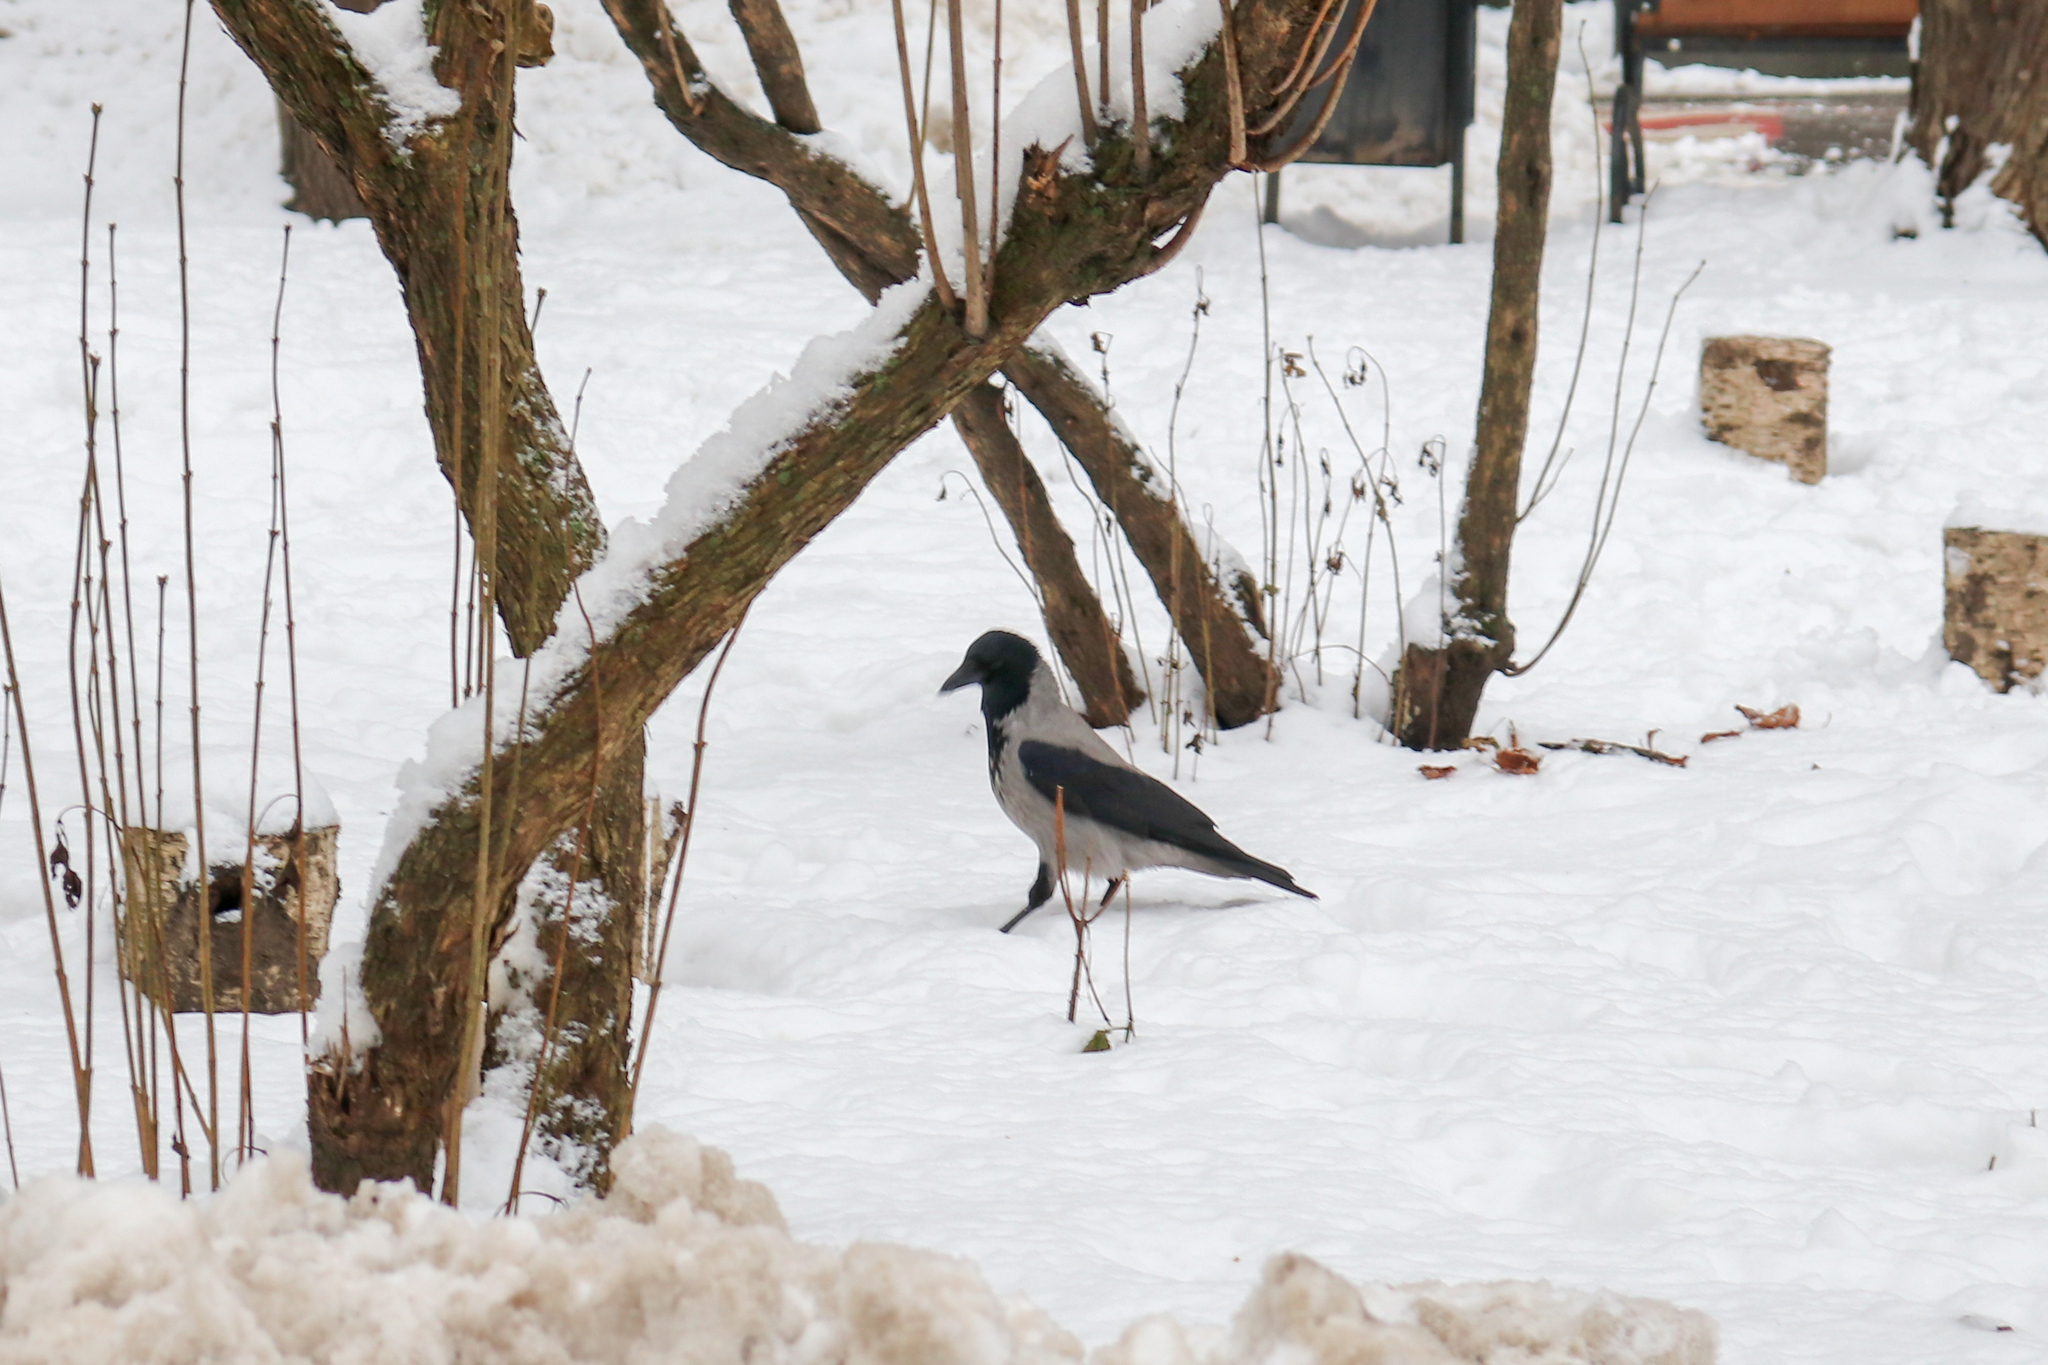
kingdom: Animalia
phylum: Chordata
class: Aves
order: Passeriformes
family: Corvidae
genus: Corvus
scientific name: Corvus cornix
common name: Hooded crow
